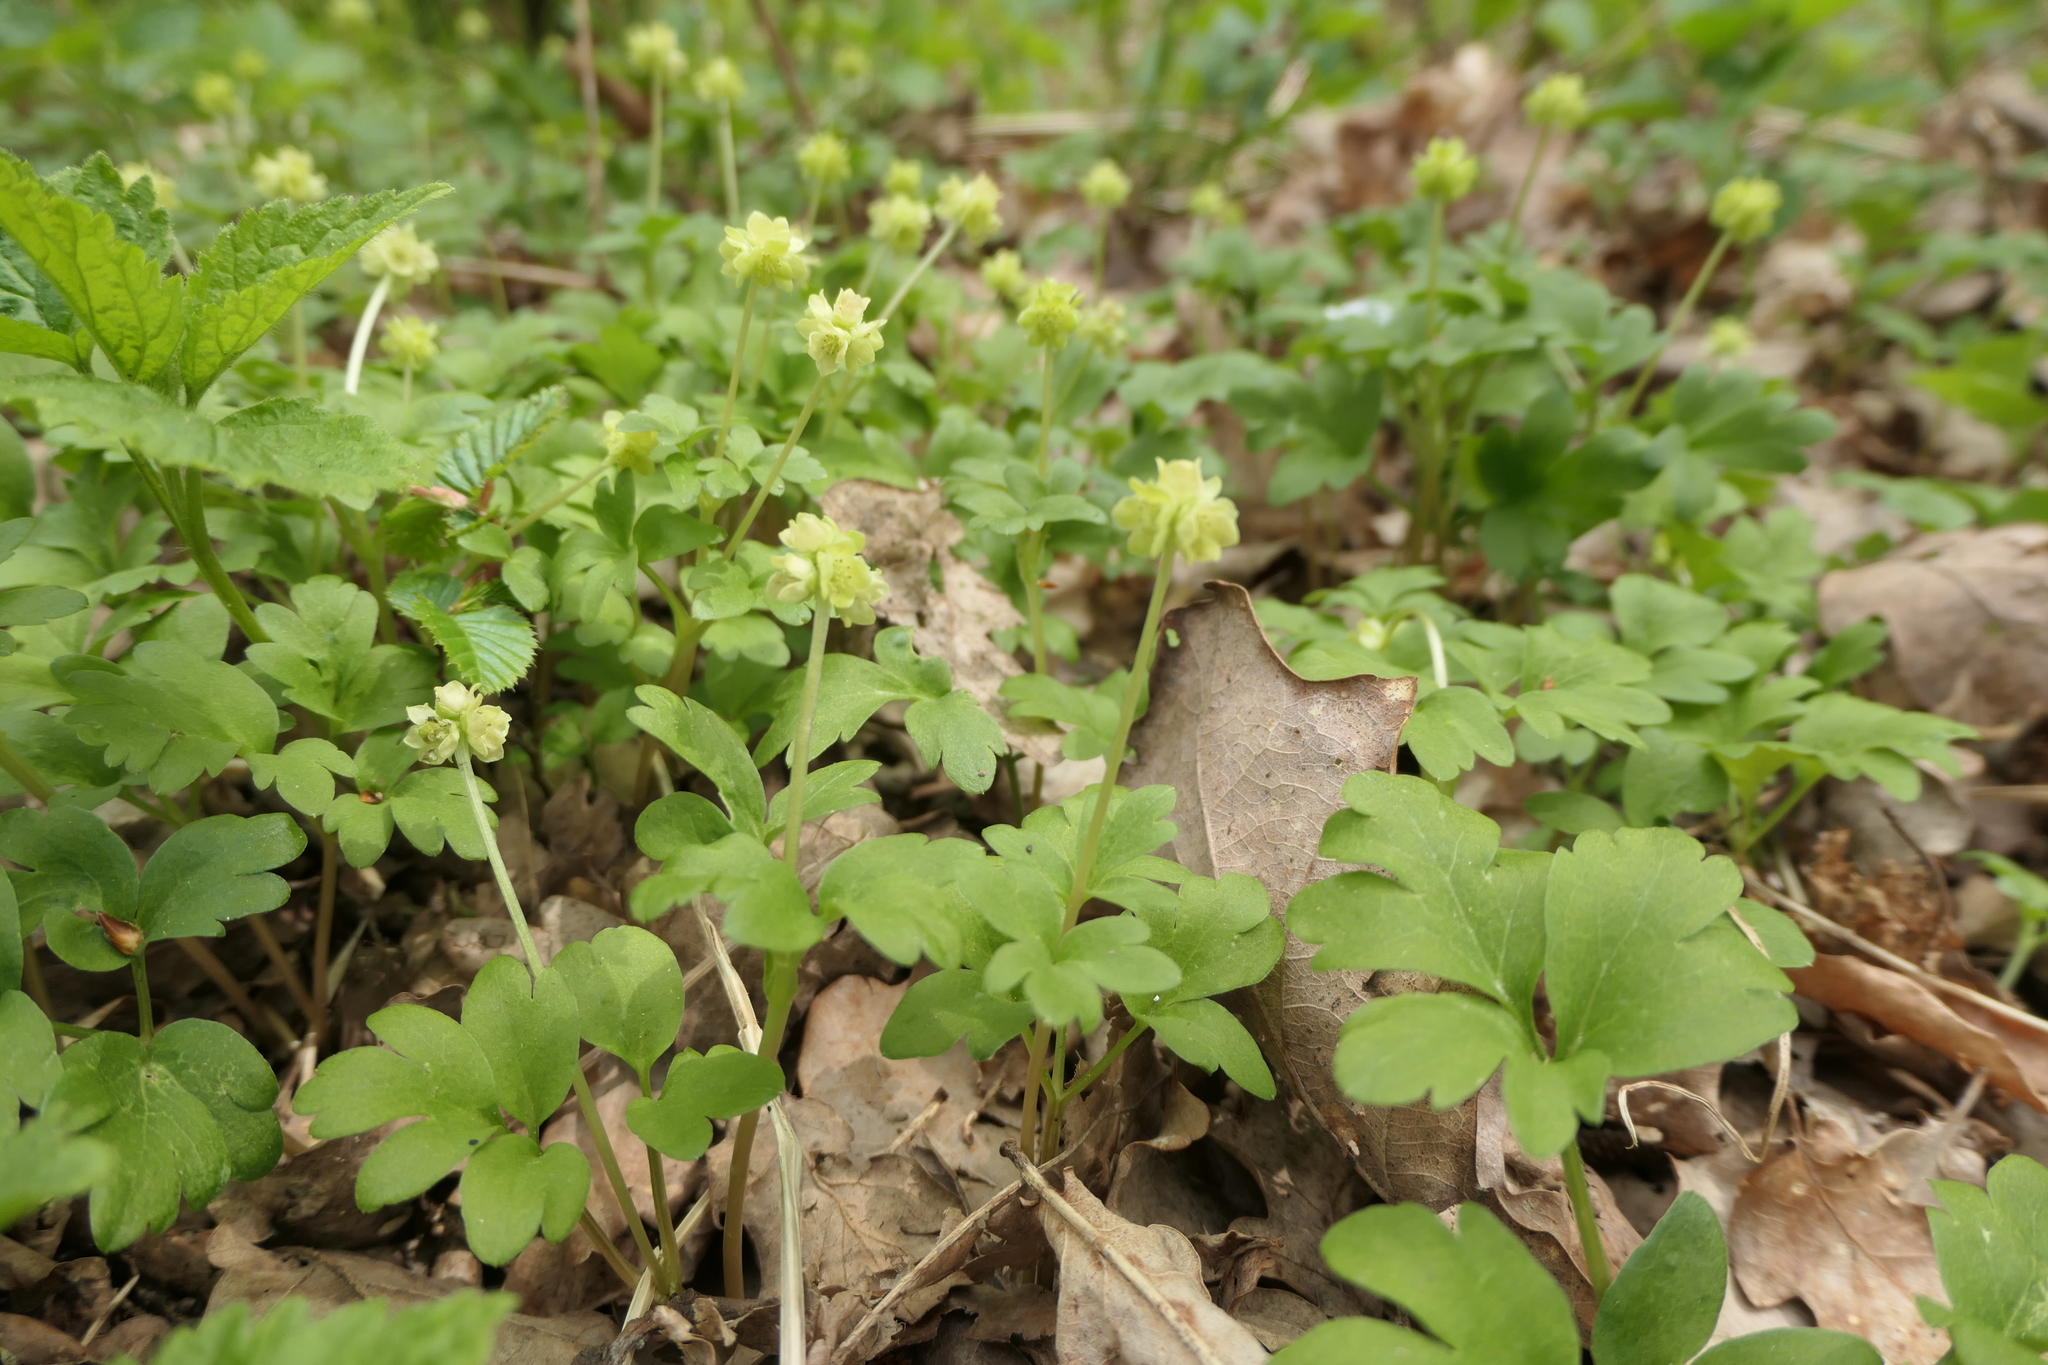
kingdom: Plantae
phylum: Tracheophyta
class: Magnoliopsida
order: Dipsacales
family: Viburnaceae
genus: Adoxa
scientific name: Adoxa moschatellina
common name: Moschatel
